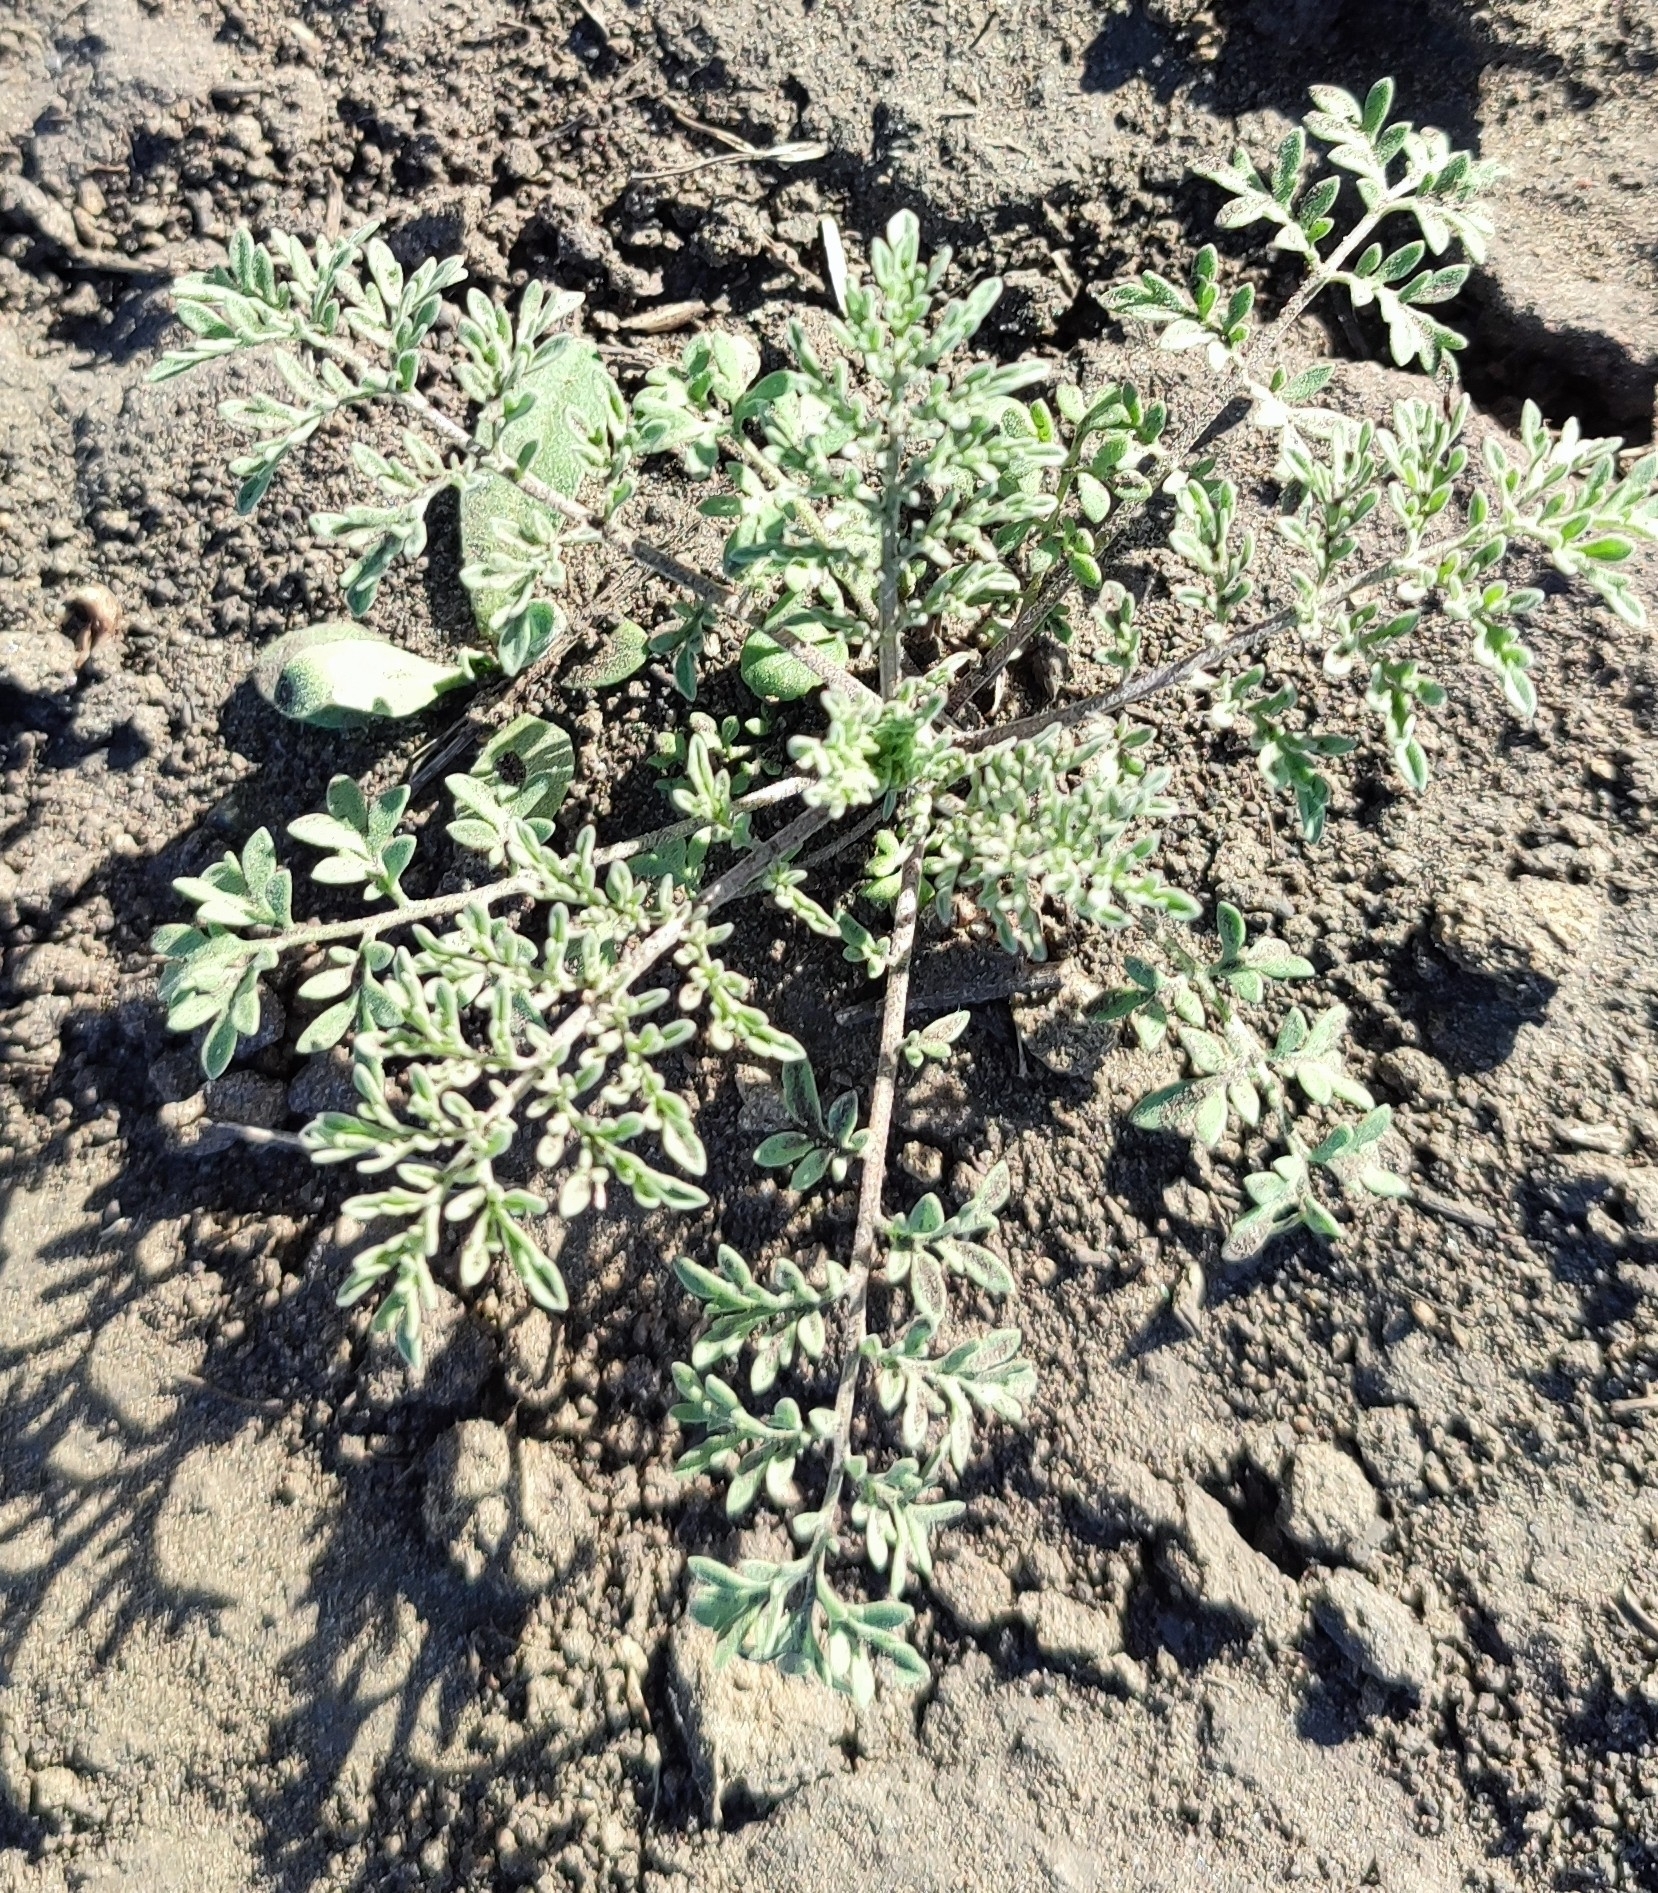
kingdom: Plantae
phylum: Tracheophyta
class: Magnoliopsida
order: Brassicales
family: Brassicaceae
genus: Descurainia
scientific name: Descurainia sophia
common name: Flixweed
